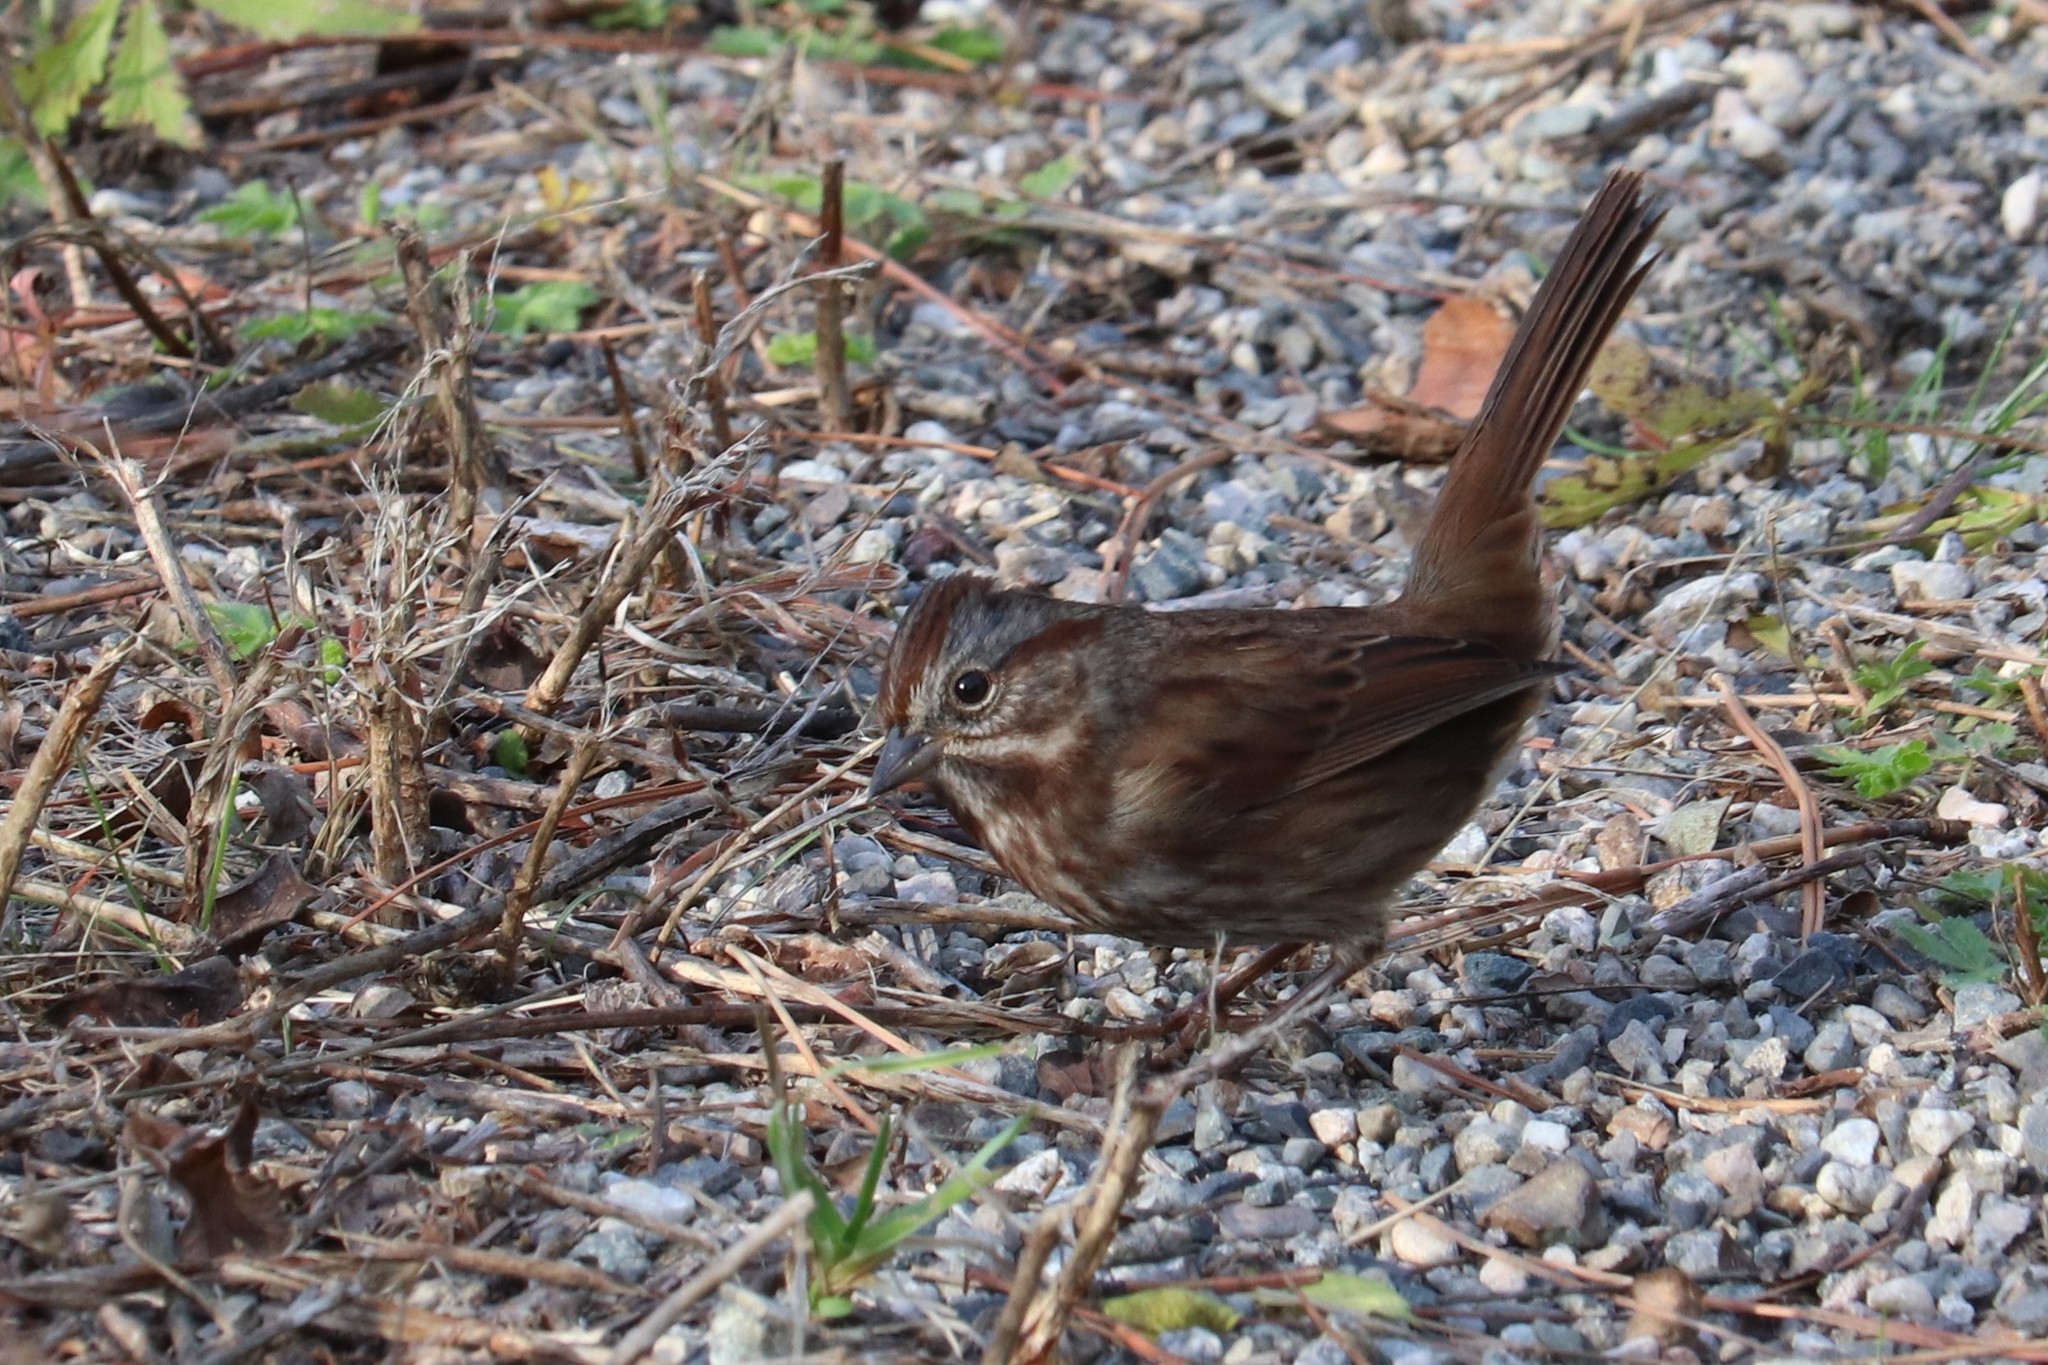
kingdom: Animalia
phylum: Chordata
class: Aves
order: Passeriformes
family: Passerellidae
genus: Melospiza
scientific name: Melospiza melodia
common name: Song sparrow
